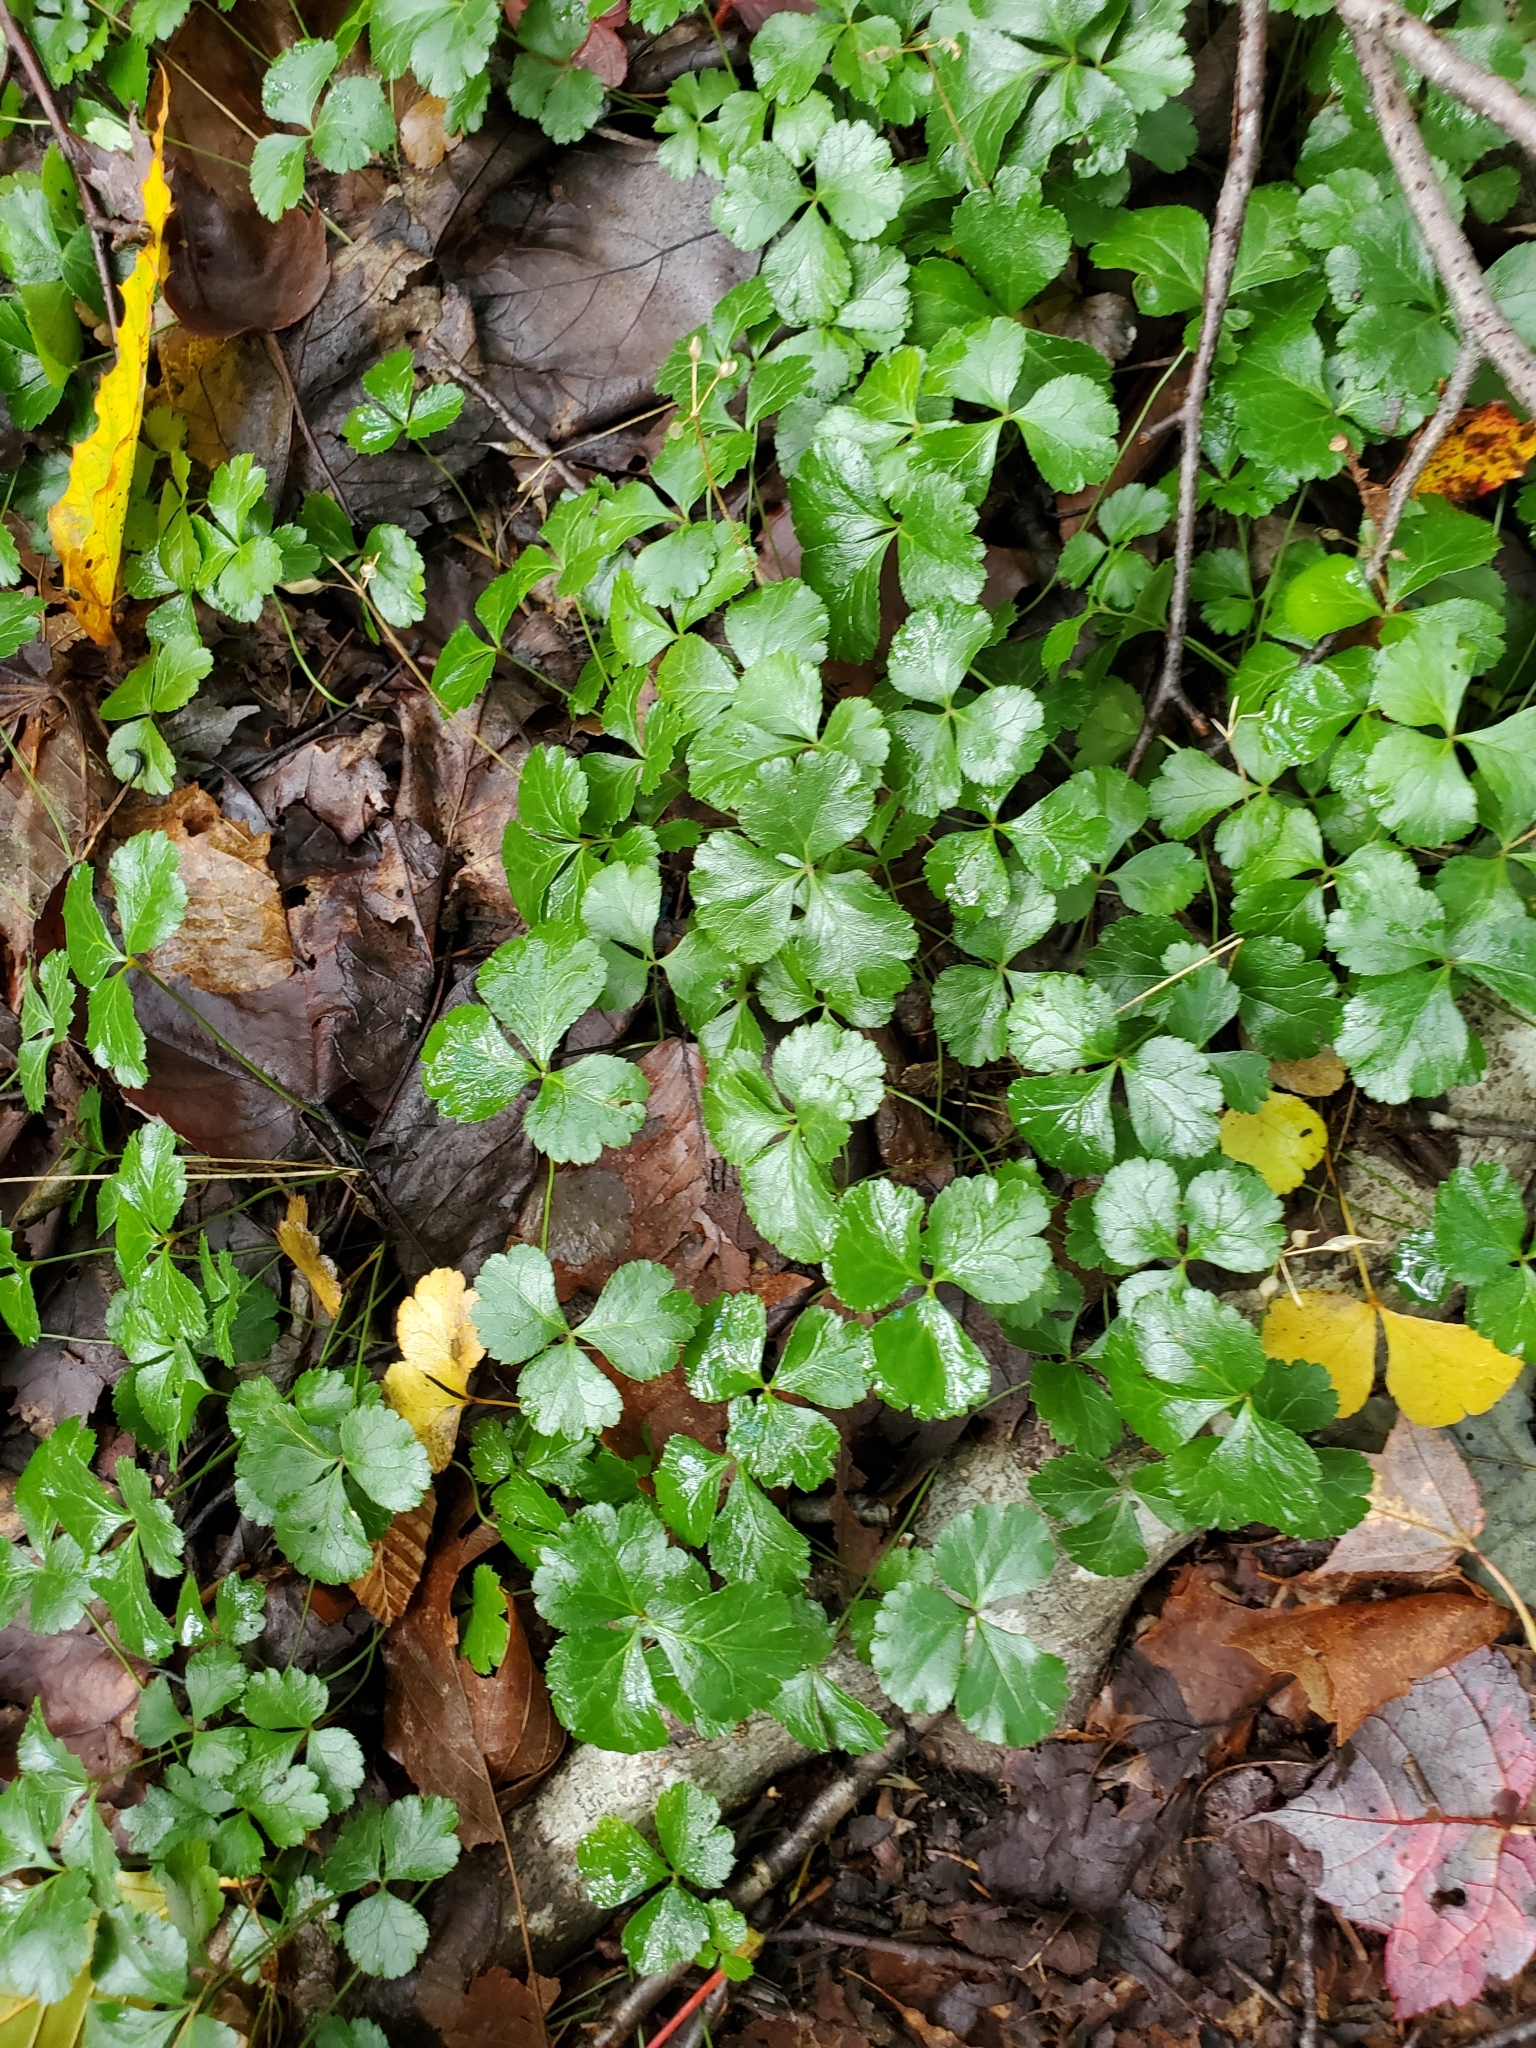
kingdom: Plantae
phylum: Tracheophyta
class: Magnoliopsida
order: Ranunculales
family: Ranunculaceae
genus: Coptis
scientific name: Coptis trifolia
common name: Canker-root
